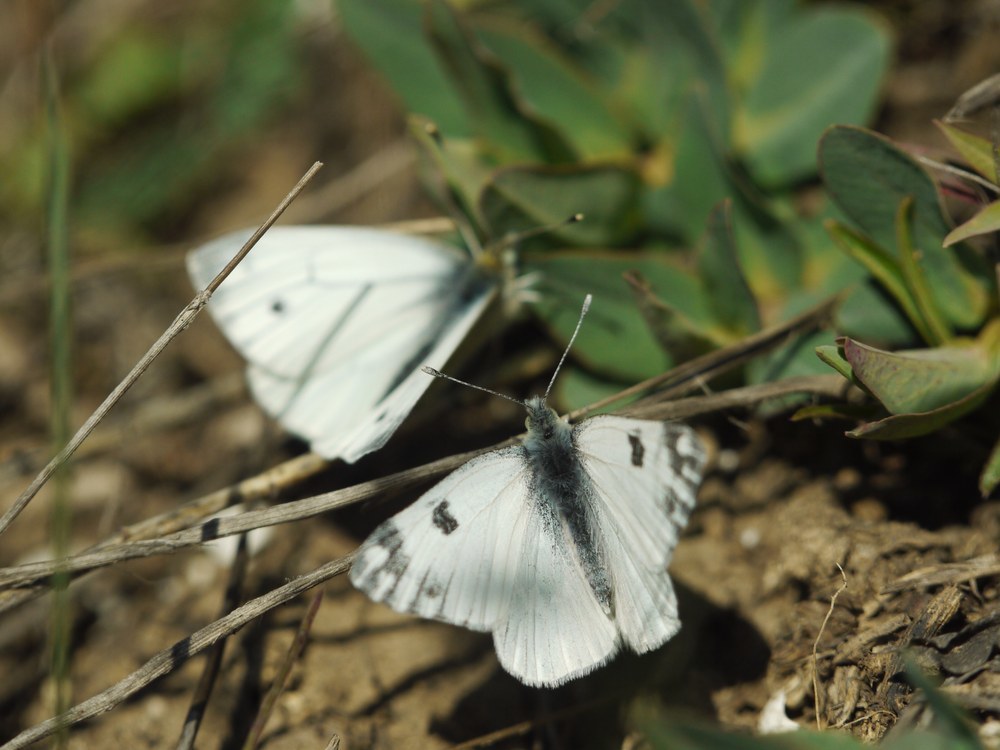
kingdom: Animalia
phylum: Arthropoda
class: Insecta
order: Lepidoptera
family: Pieridae
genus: Pontia
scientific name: Pontia edusa
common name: Eastern bath white
